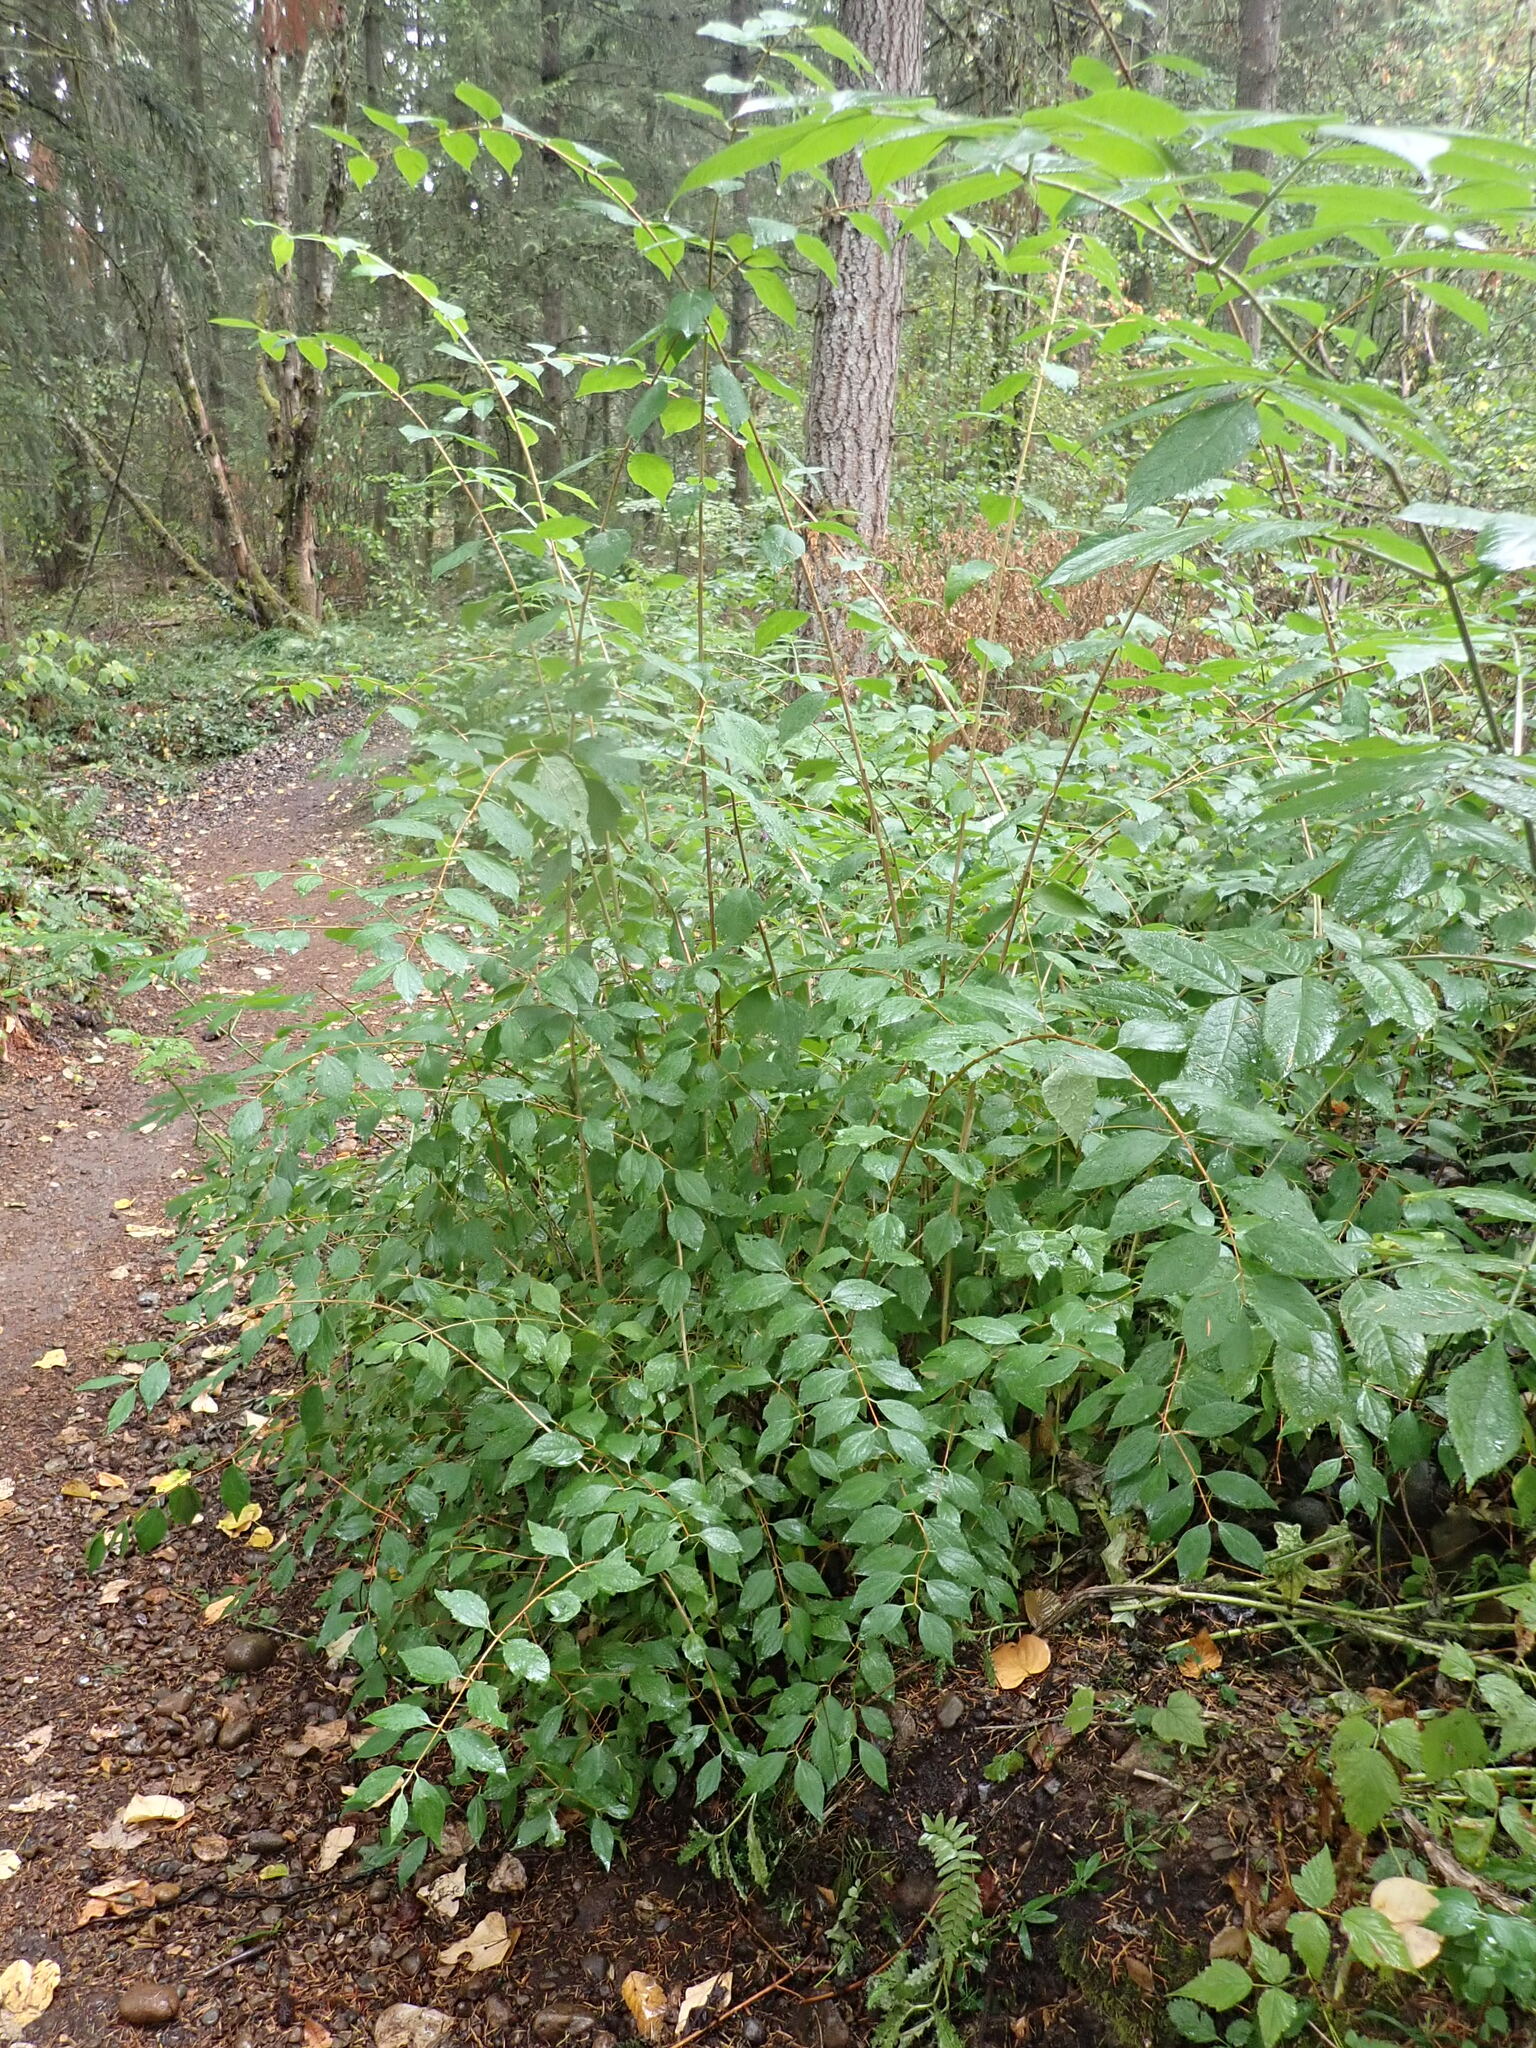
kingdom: Plantae
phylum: Tracheophyta
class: Magnoliopsida
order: Cornales
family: Hydrangeaceae
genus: Philadelphus
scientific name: Philadelphus lewisii
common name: Lewis's mock orange
